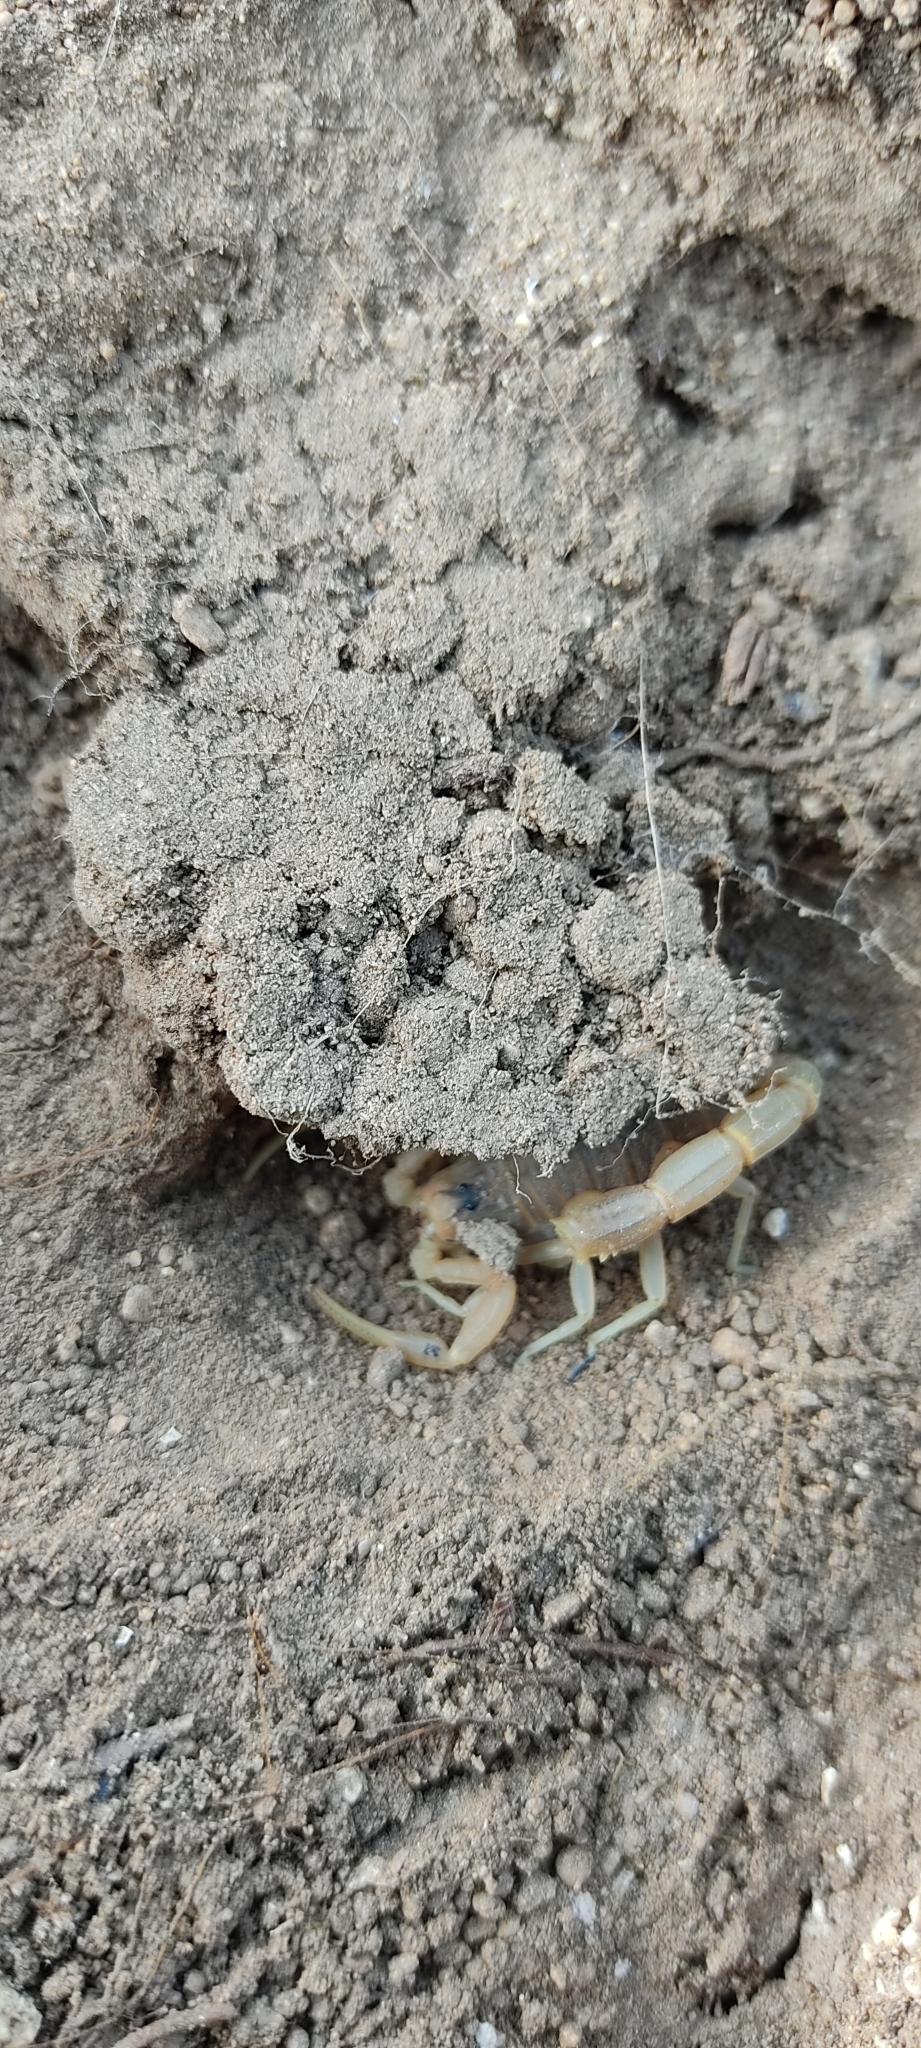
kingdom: Animalia
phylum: Arthropoda
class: Arachnida
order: Scorpiones
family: Buthidae
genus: Buthus
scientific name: Buthus occitanus
